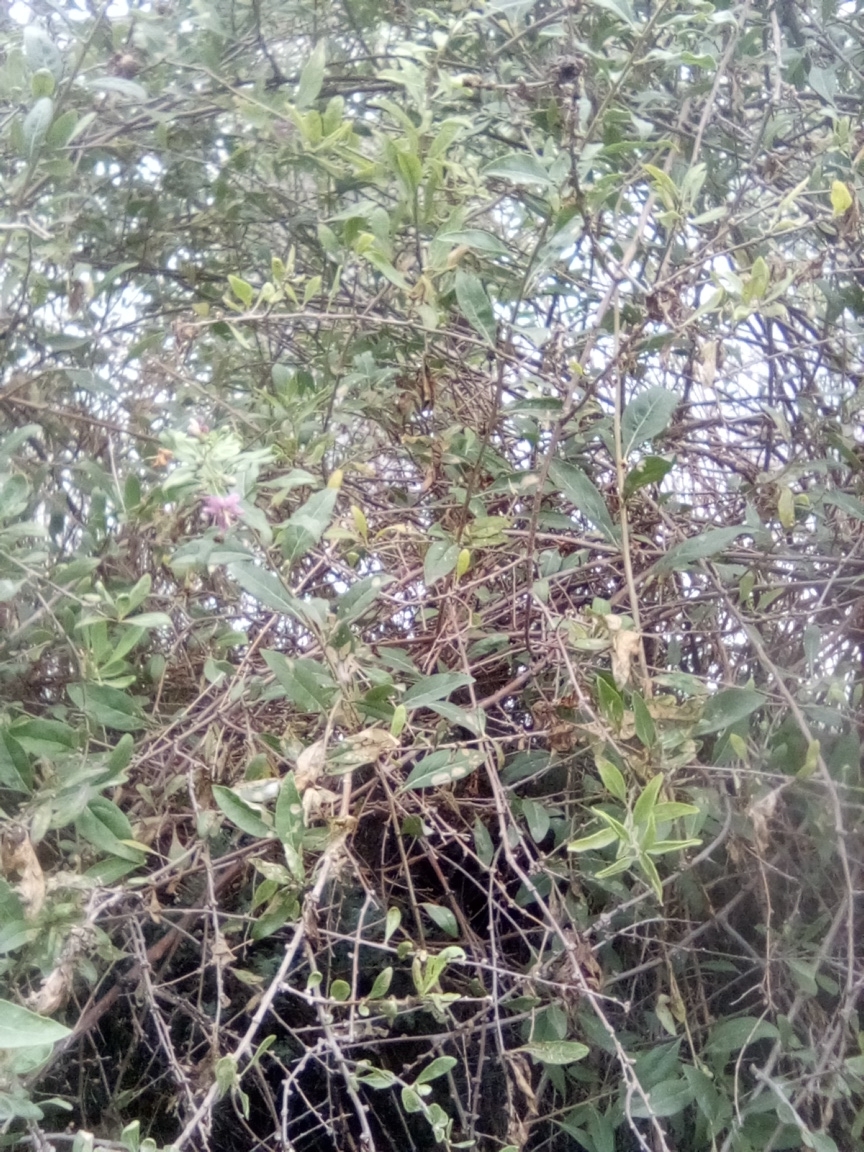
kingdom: Plantae
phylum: Tracheophyta
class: Magnoliopsida
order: Solanales
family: Solanaceae
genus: Lycium
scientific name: Lycium barbarum
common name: Duke of argyll's teaplant
